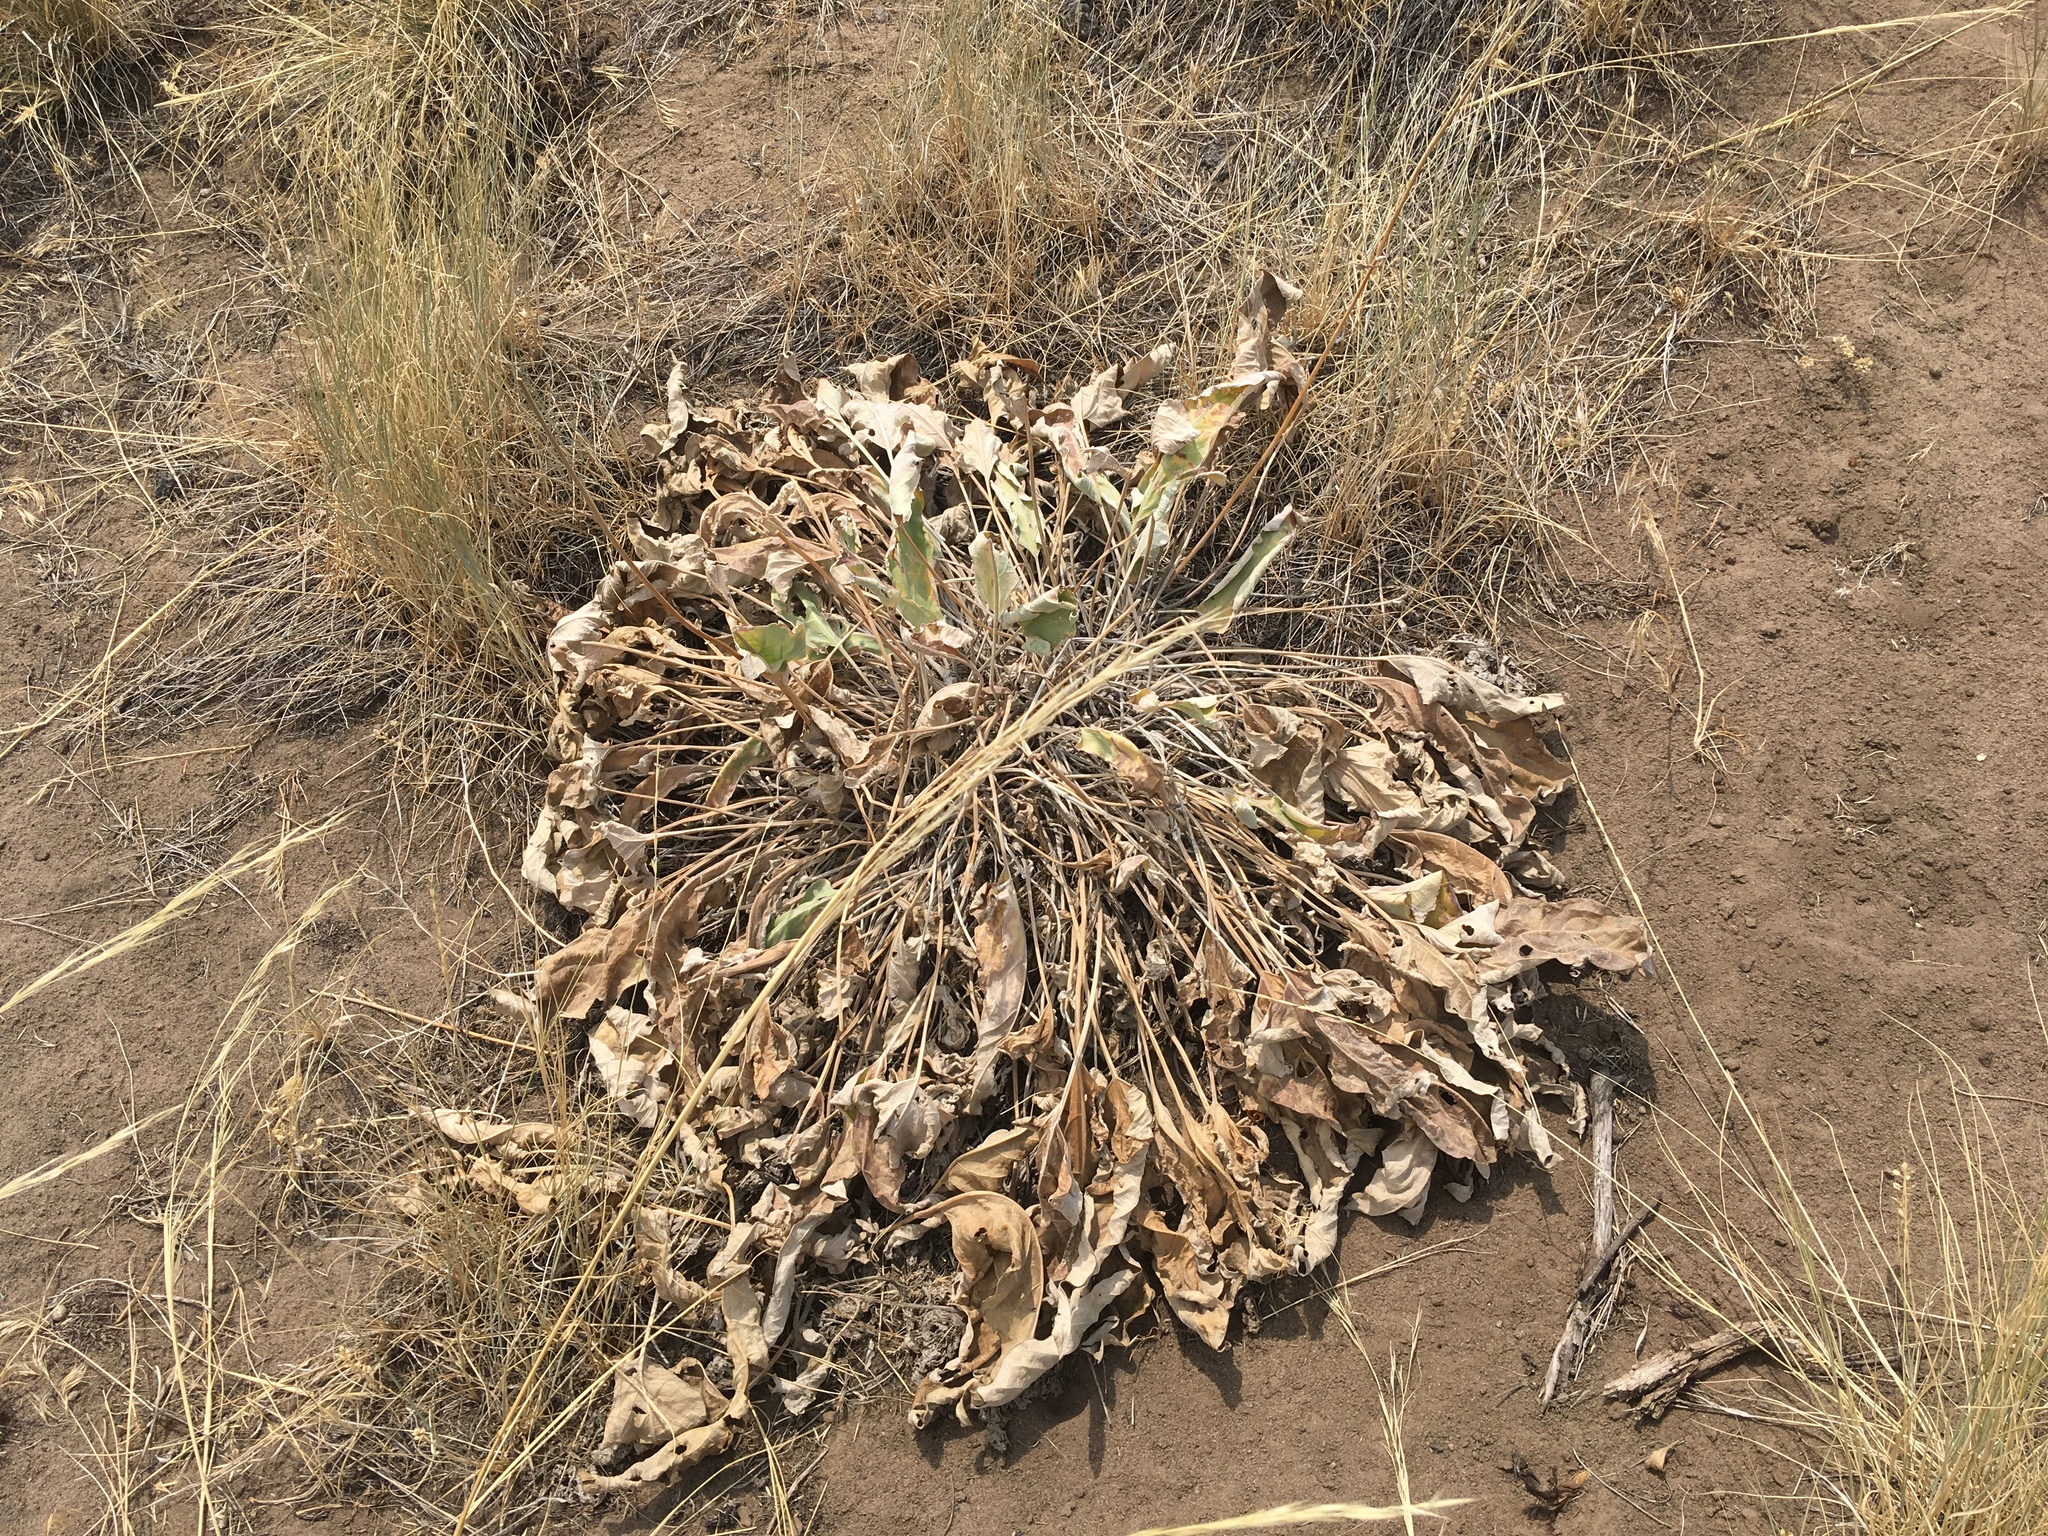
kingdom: Plantae
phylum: Tracheophyta
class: Magnoliopsida
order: Asterales
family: Asteraceae
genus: Wyethia
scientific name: Wyethia sagittata
